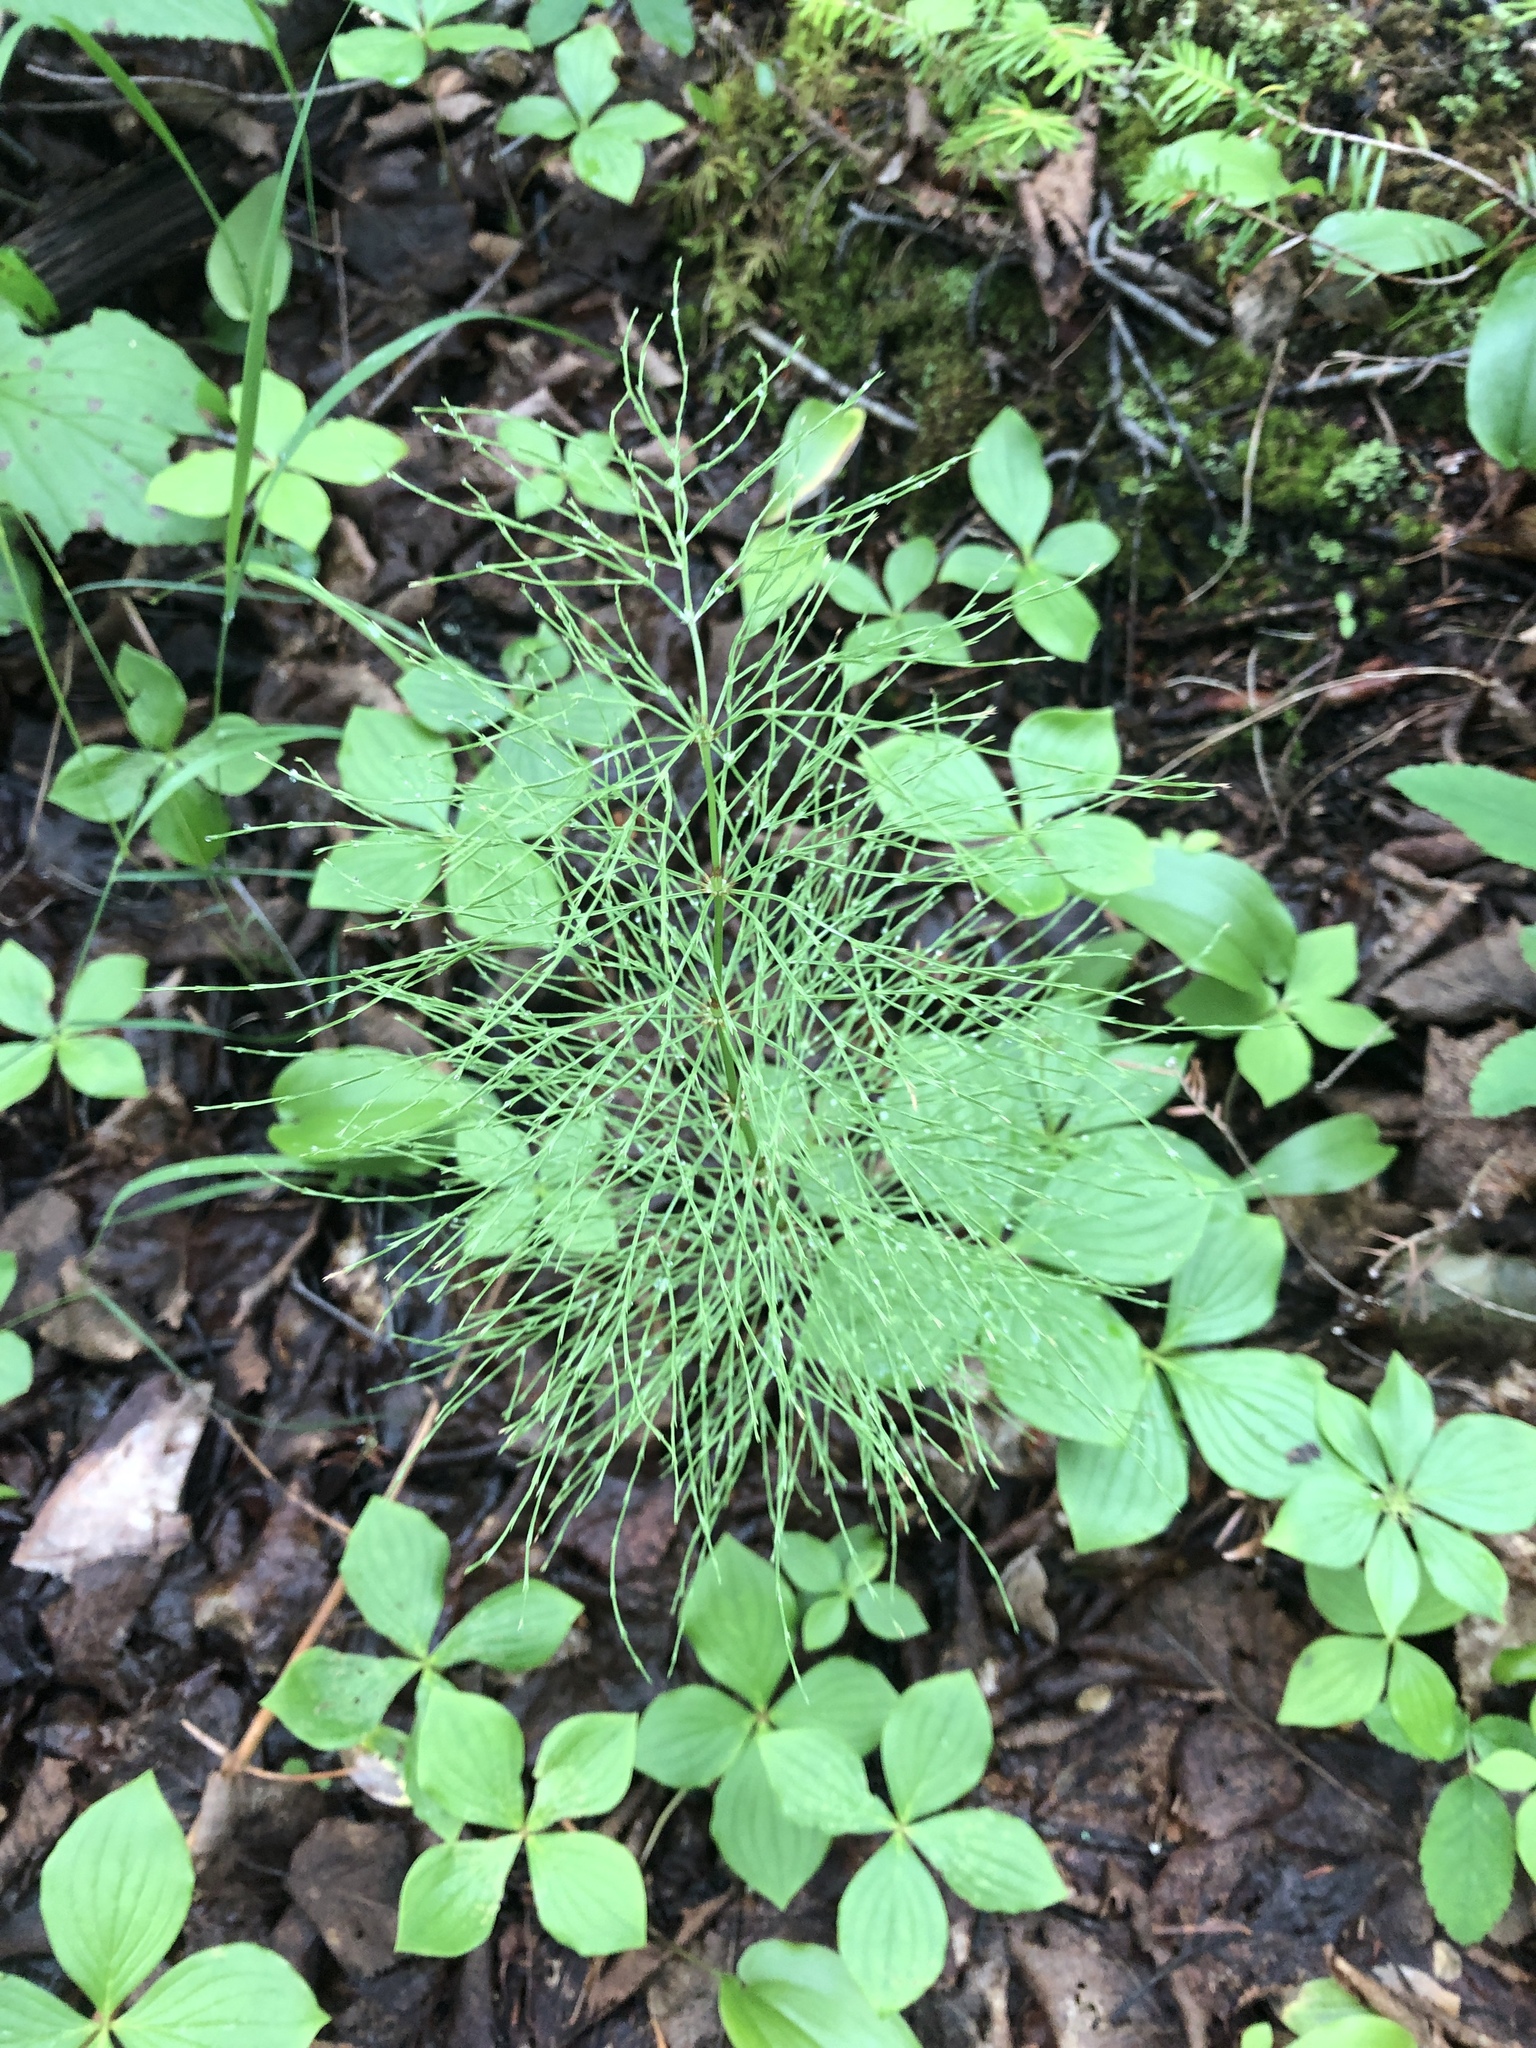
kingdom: Plantae
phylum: Tracheophyta
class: Polypodiopsida
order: Equisetales
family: Equisetaceae
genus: Equisetum
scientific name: Equisetum sylvaticum
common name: Wood horsetail
